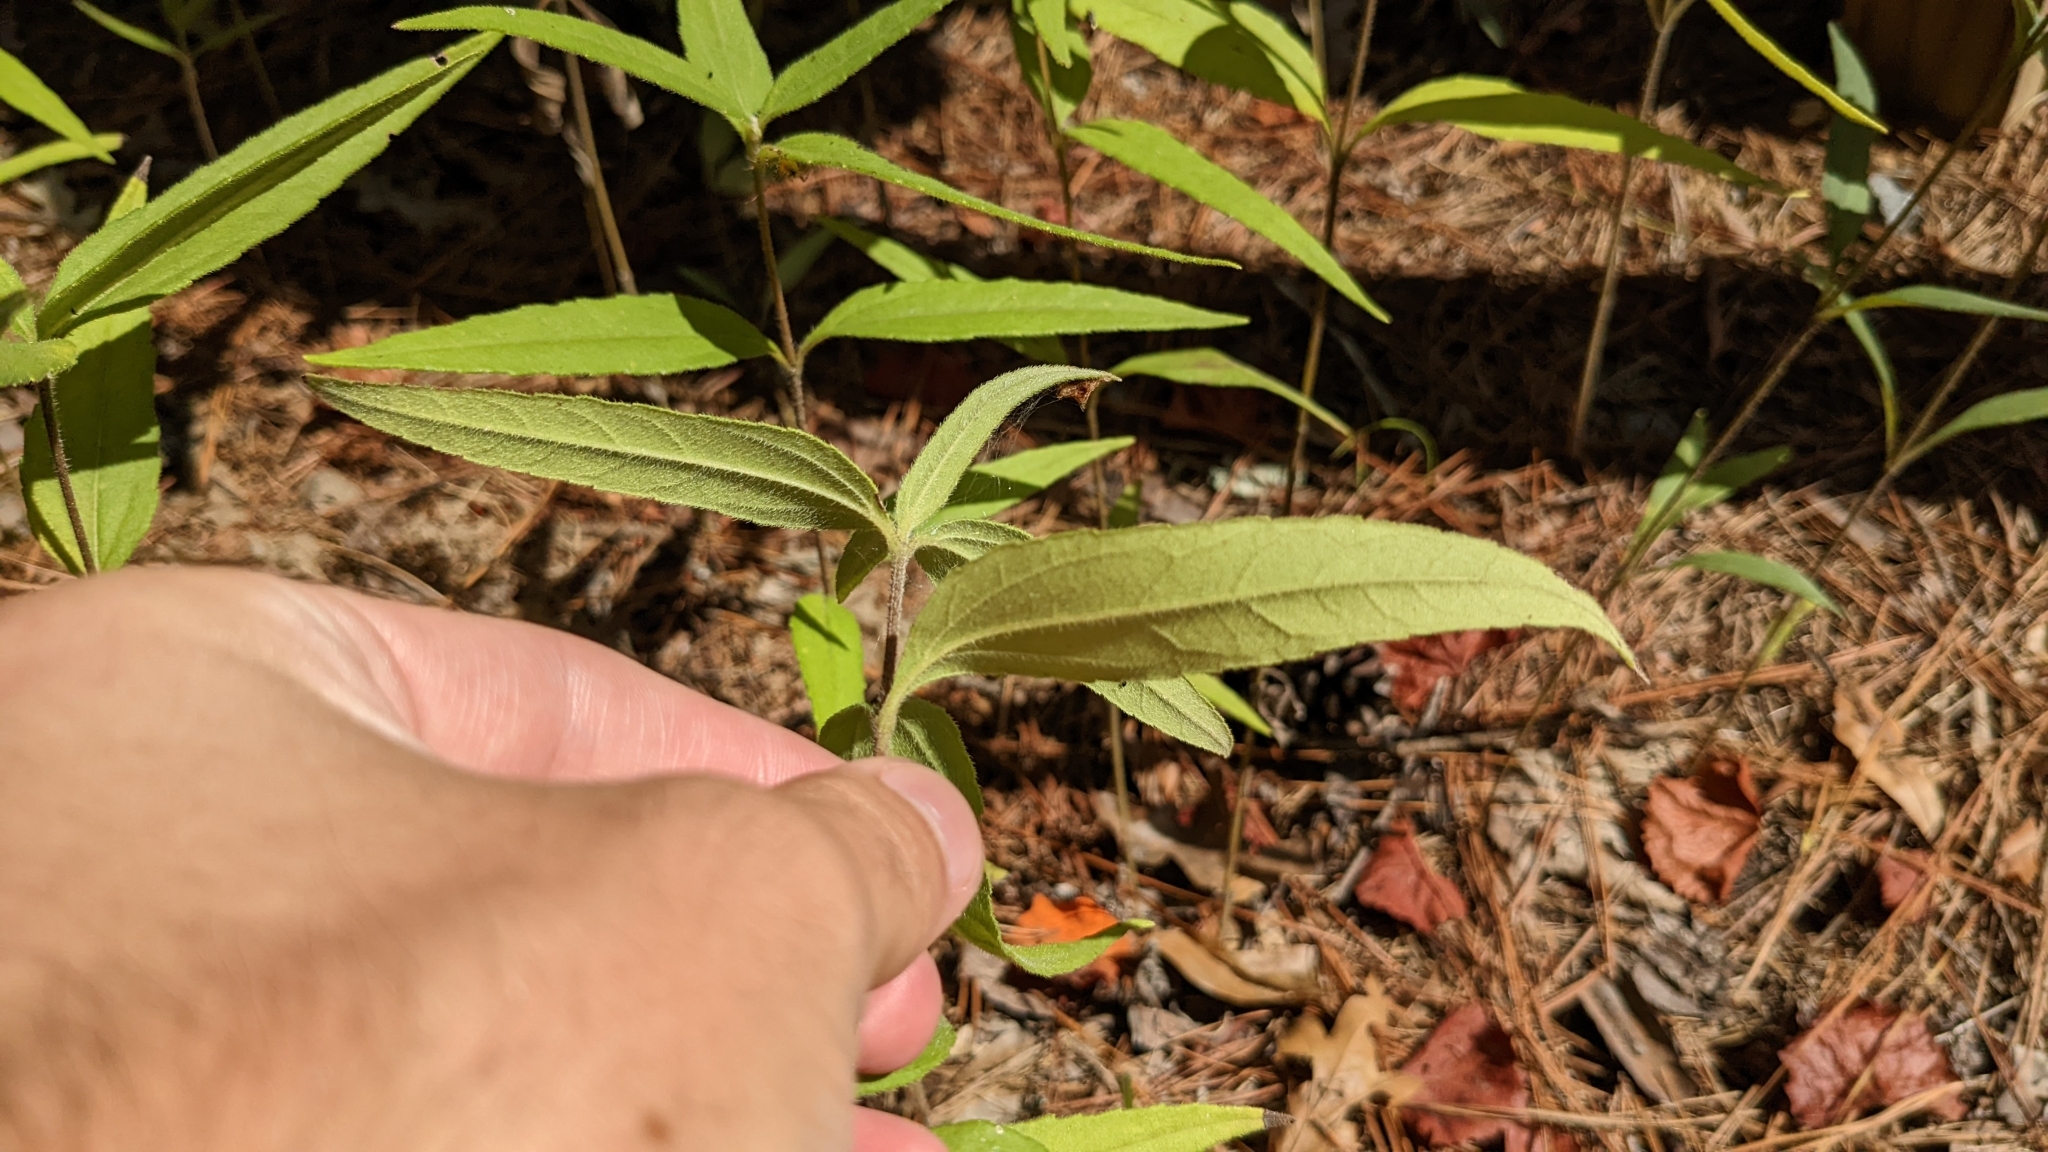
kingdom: Plantae
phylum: Tracheophyta
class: Magnoliopsida
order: Asterales
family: Asteraceae
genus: Helianthus
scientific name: Helianthus hirsutus
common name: Hairy sunflower
